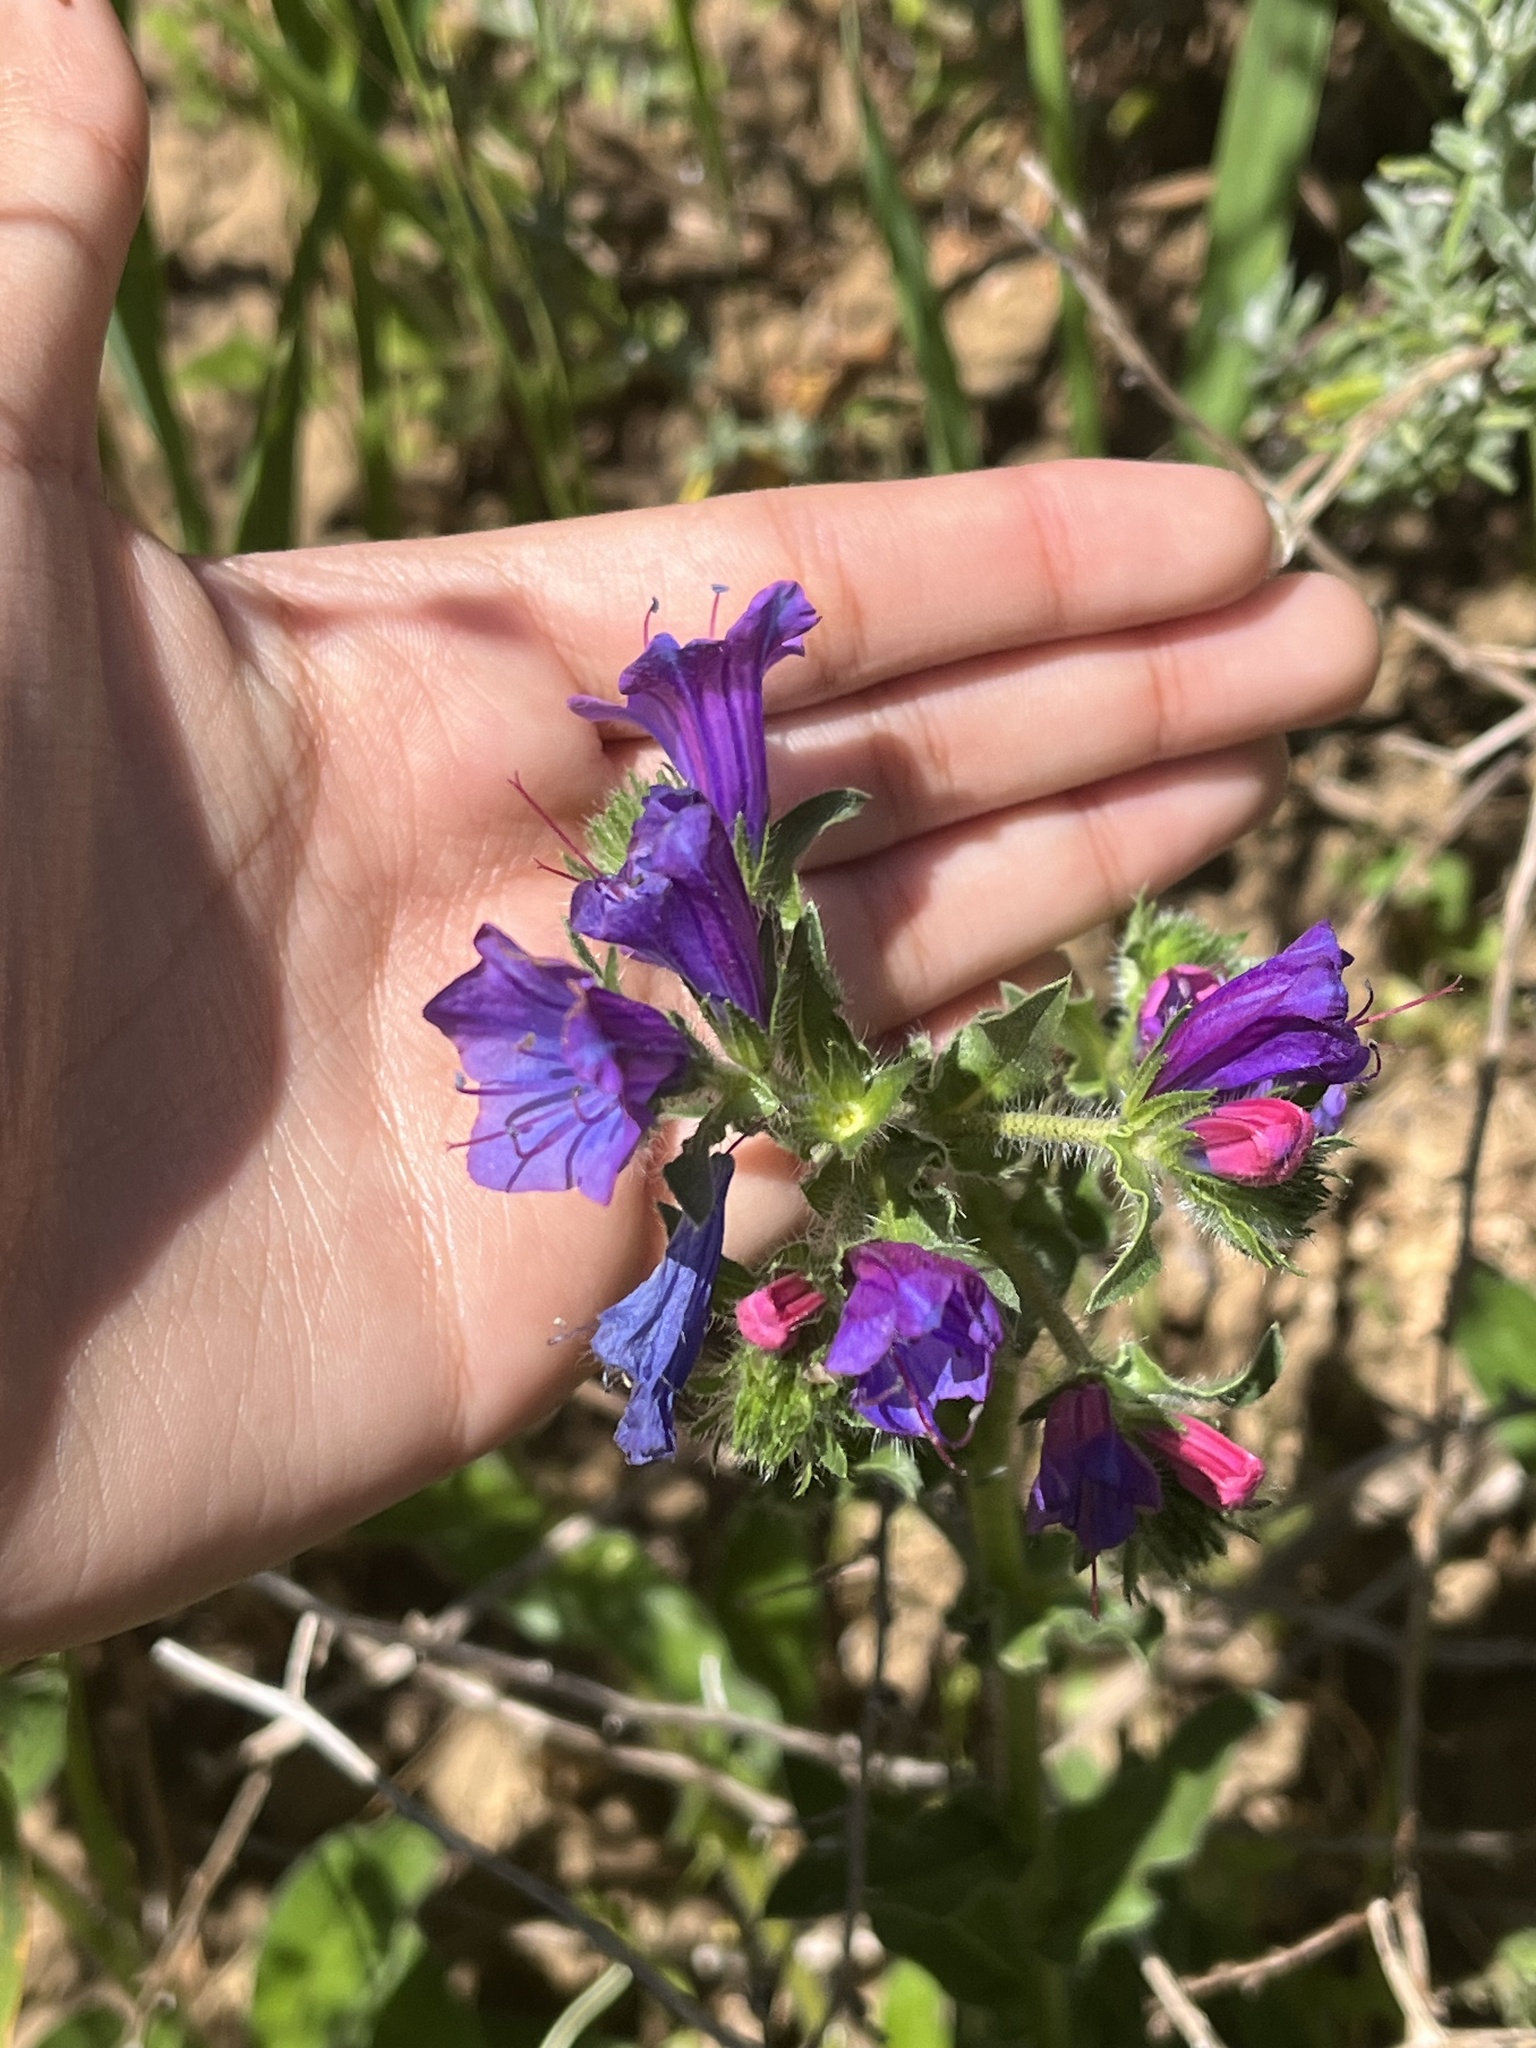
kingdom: Plantae
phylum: Tracheophyta
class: Magnoliopsida
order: Boraginales
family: Boraginaceae
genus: Echium
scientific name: Echium plantagineum
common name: Purple viper's-bugloss
